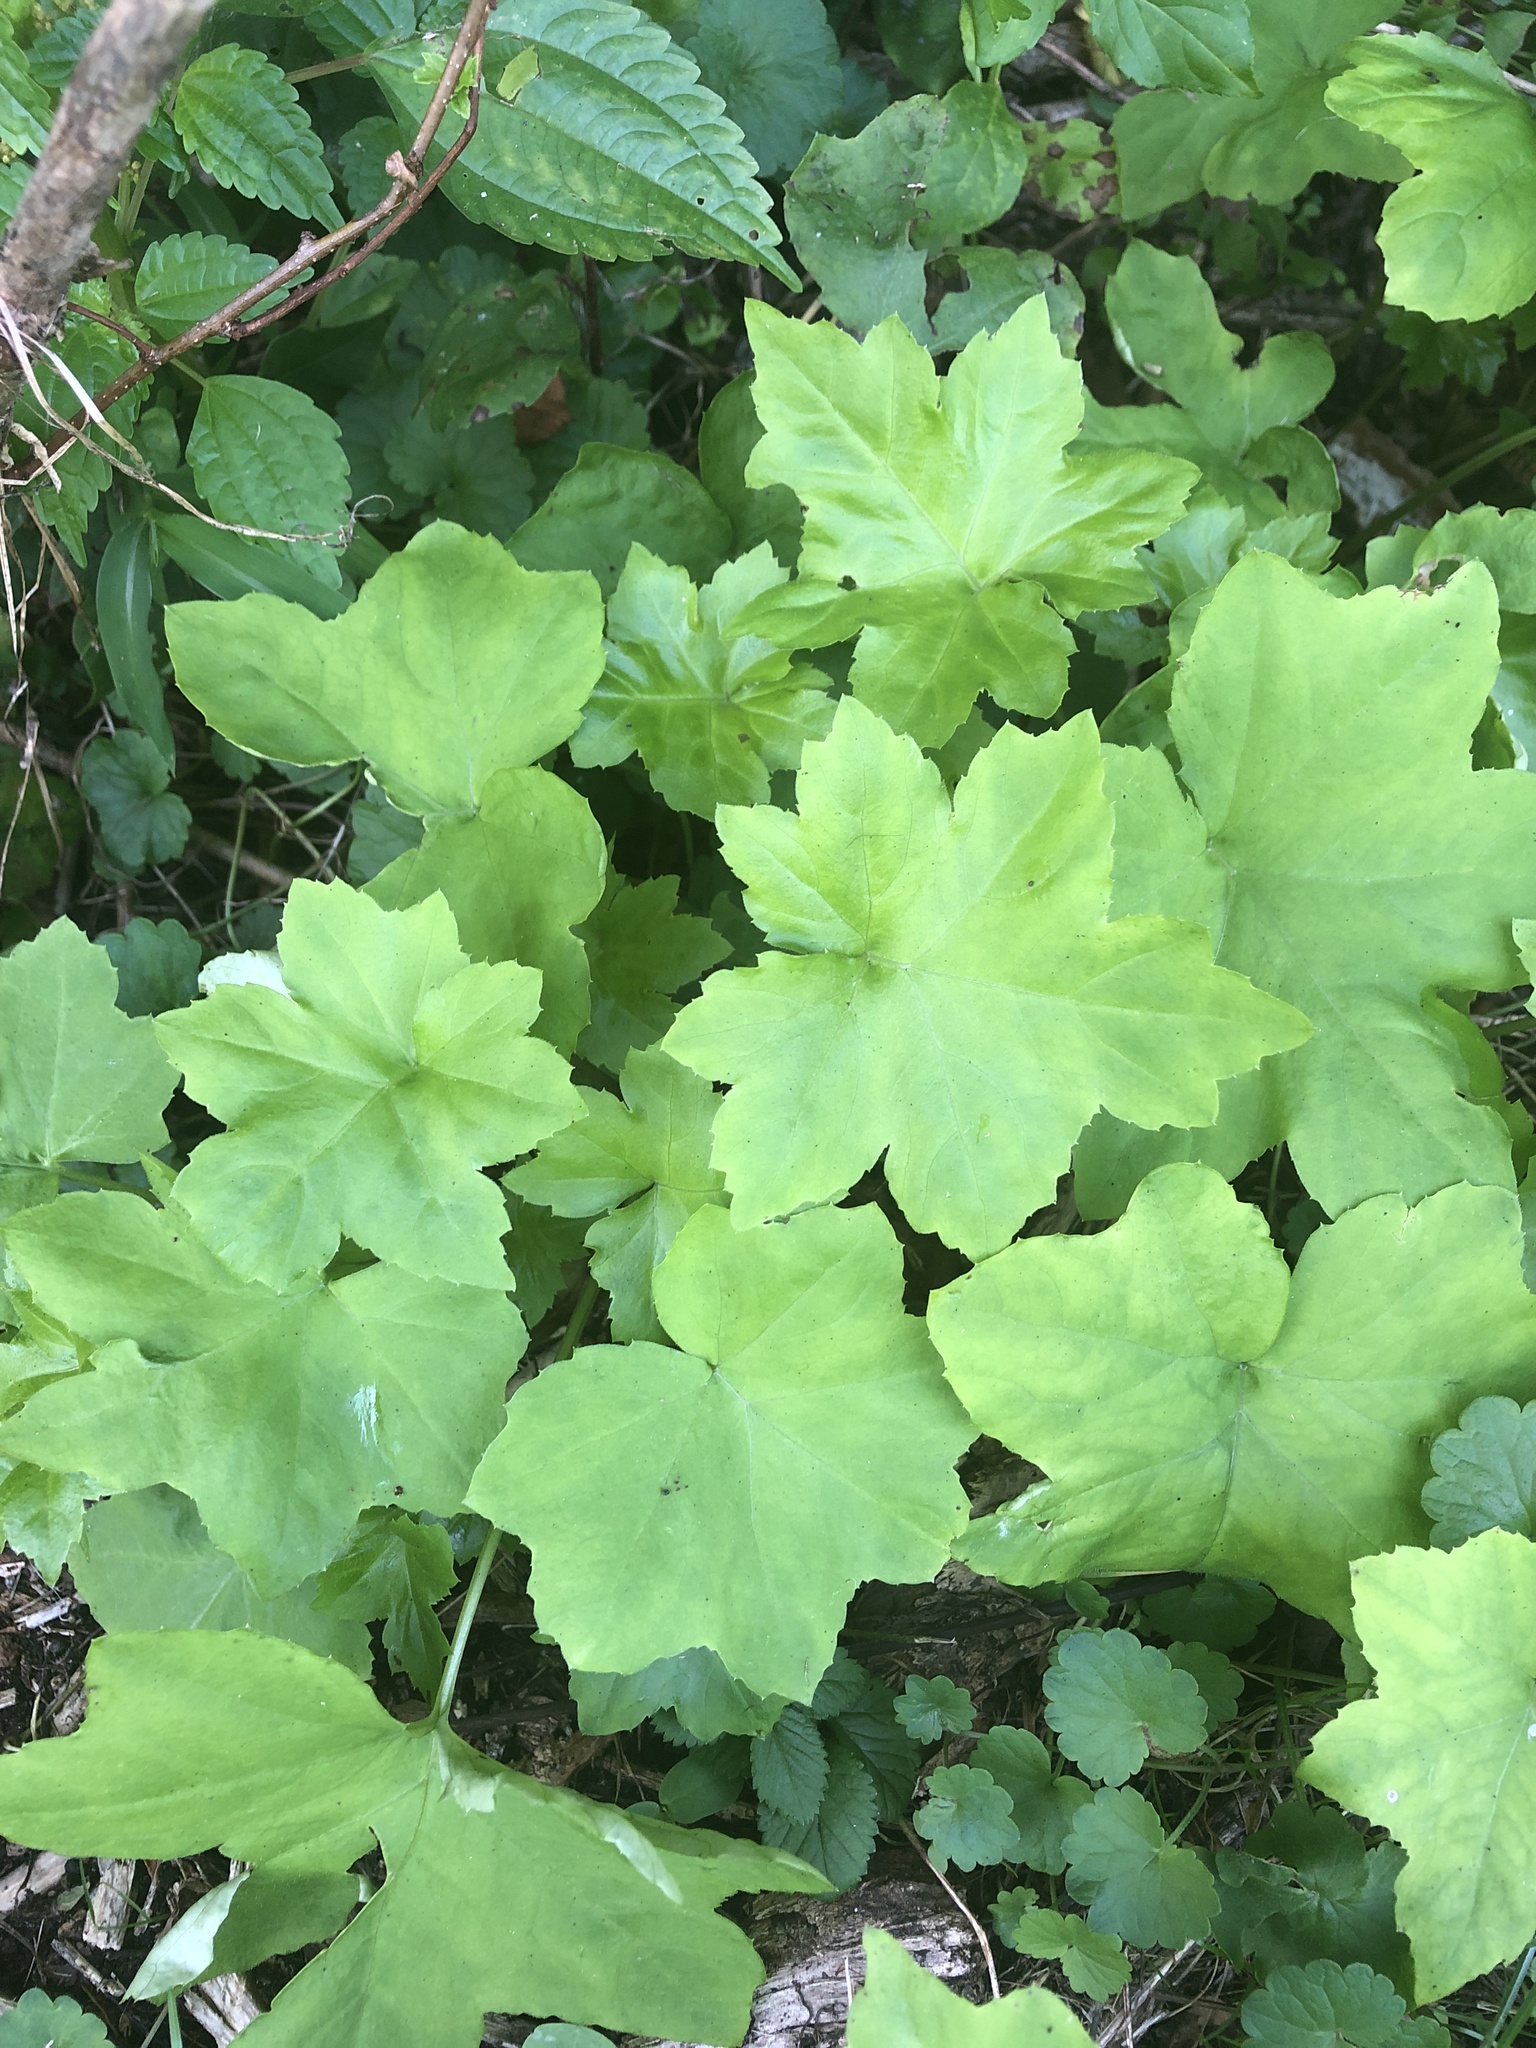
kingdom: Plantae
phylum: Tracheophyta
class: Magnoliopsida
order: Boraginales
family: Hydrophyllaceae
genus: Hydrophyllum
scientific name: Hydrophyllum canadense
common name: Canada waterleaf
